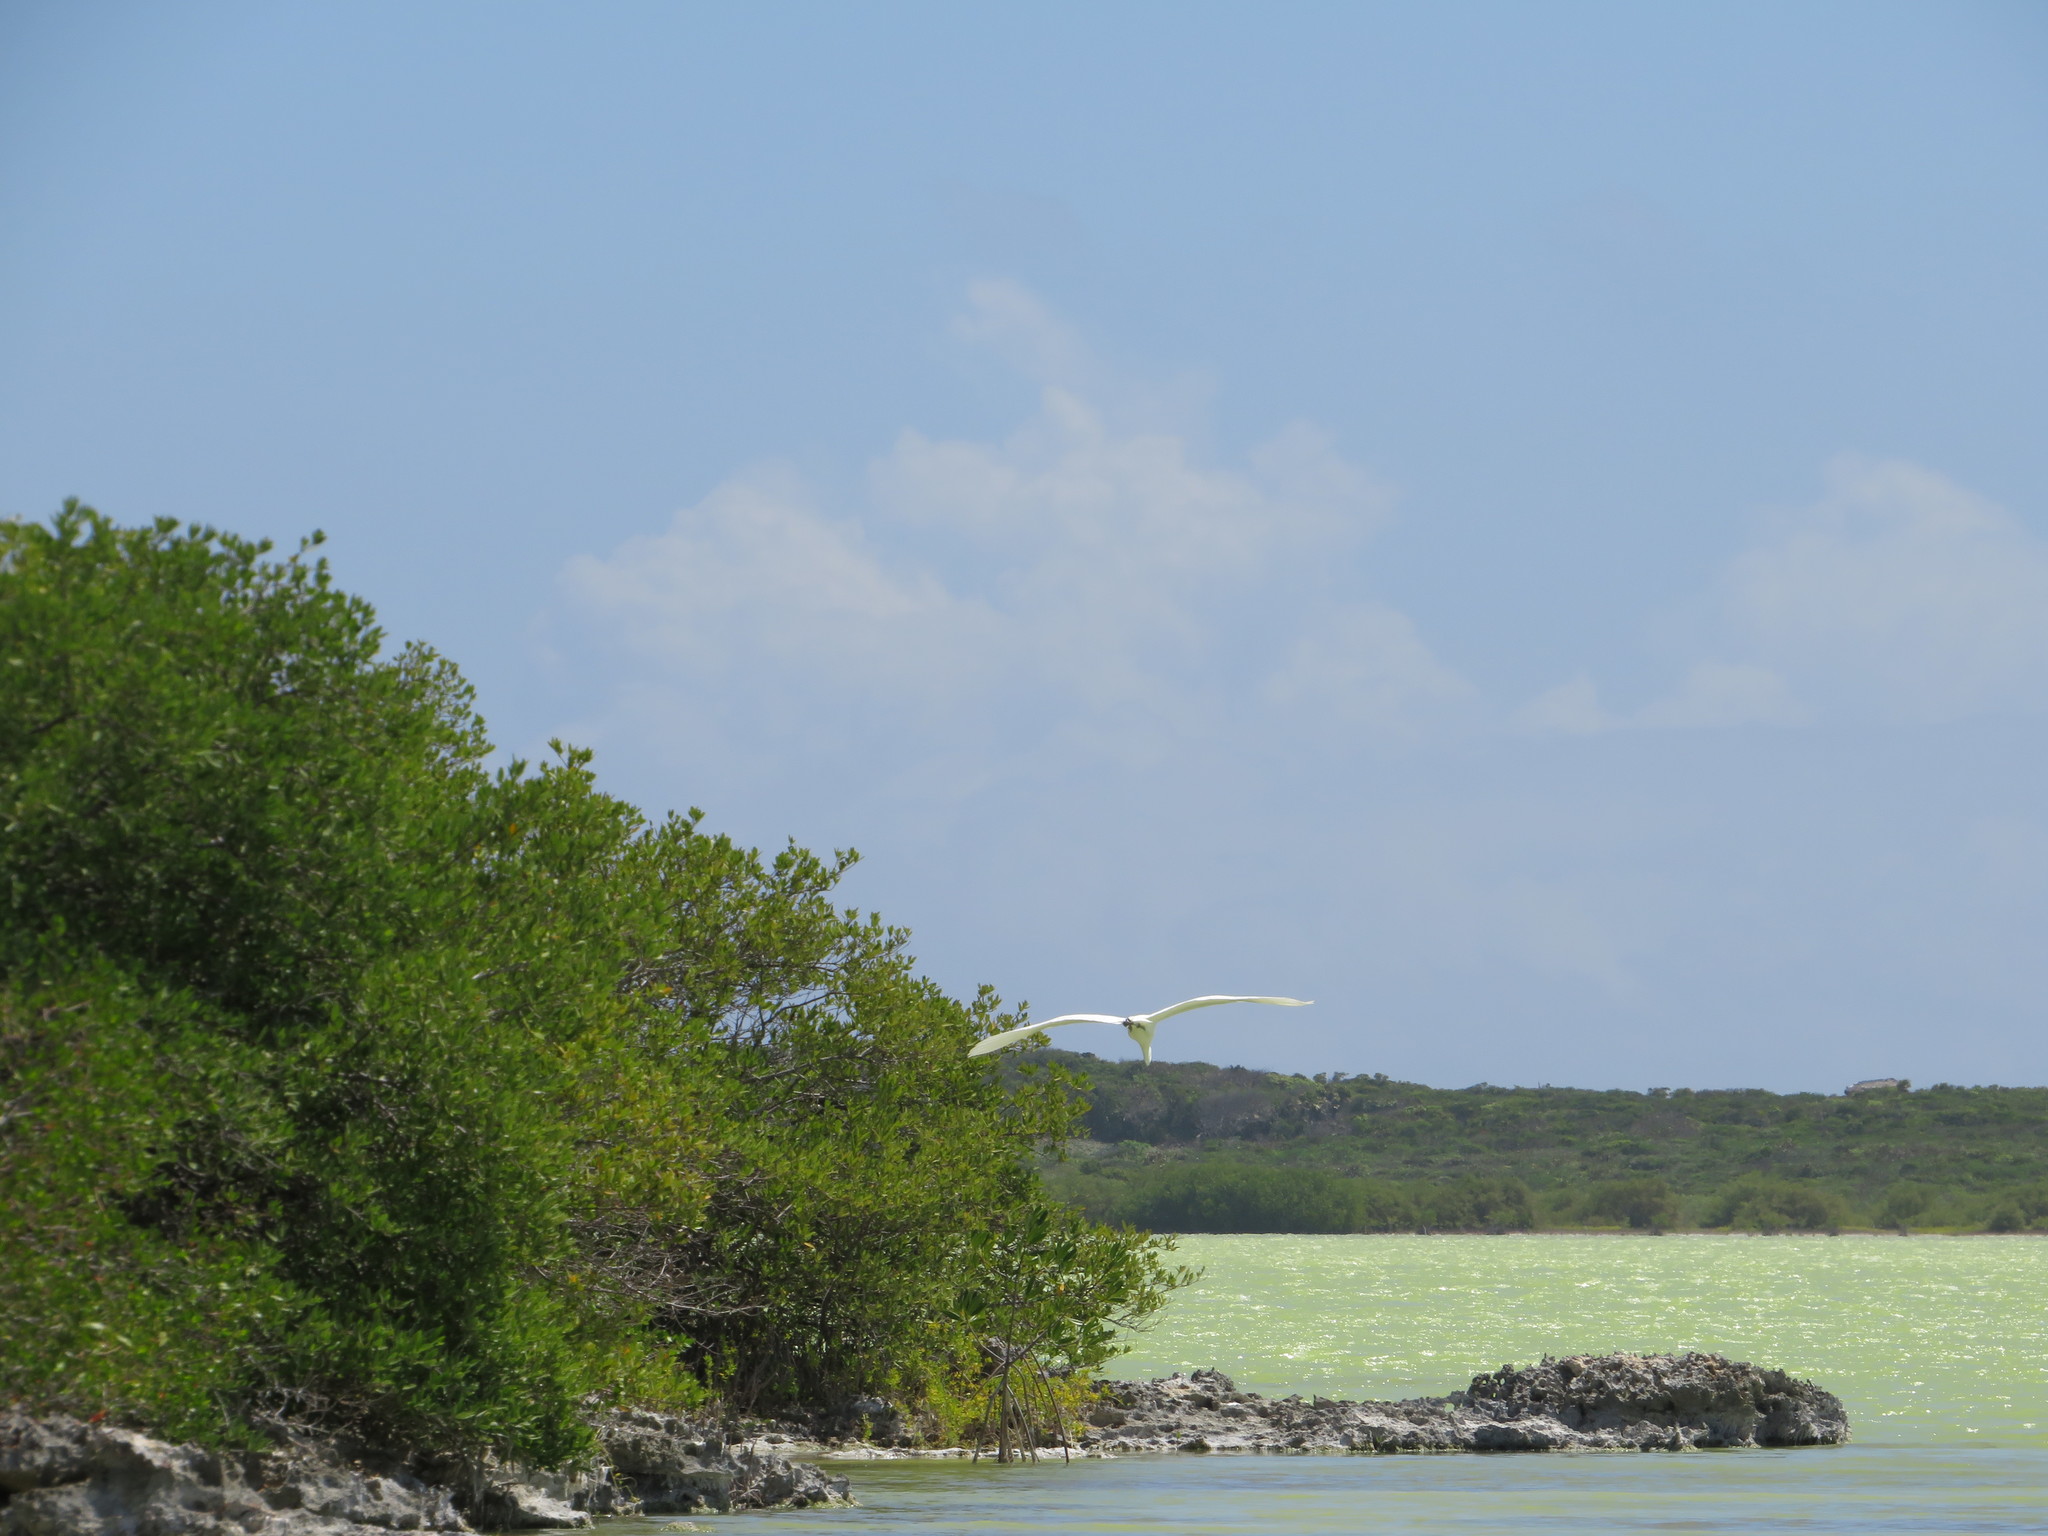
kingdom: Animalia
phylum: Chordata
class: Aves
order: Pelecaniformes
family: Ardeidae
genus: Ardea
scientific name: Ardea alba
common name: Great egret
